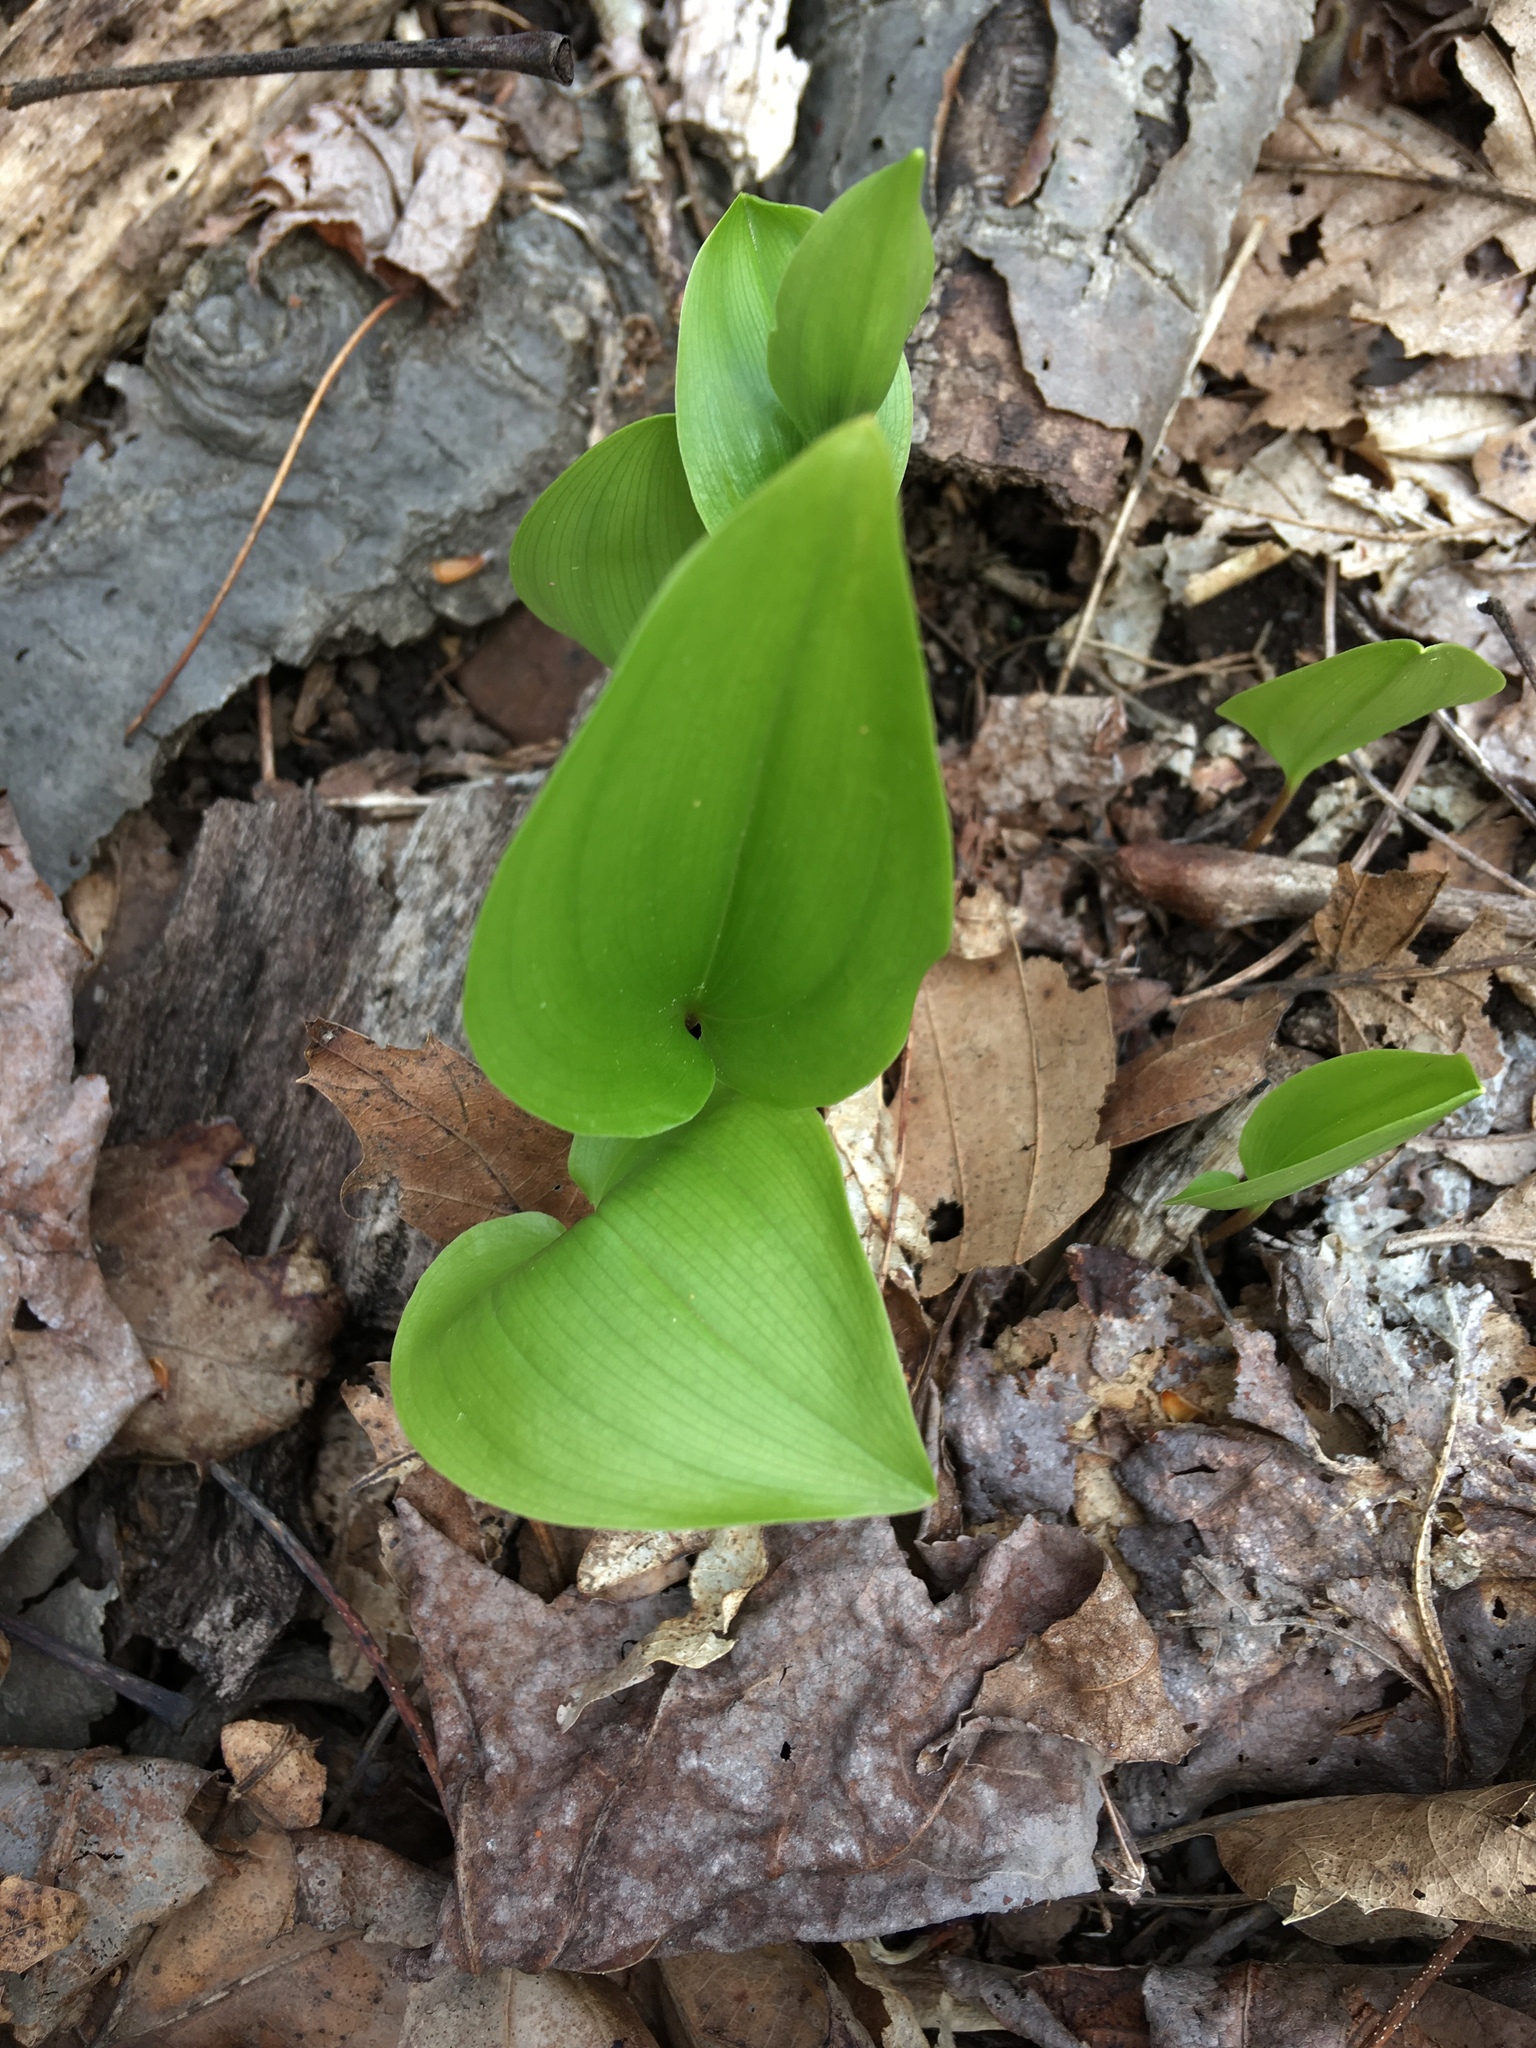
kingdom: Plantae
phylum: Tracheophyta
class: Liliopsida
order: Asparagales
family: Asparagaceae
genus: Maianthemum
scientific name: Maianthemum canadense
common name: False lily-of-the-valley
